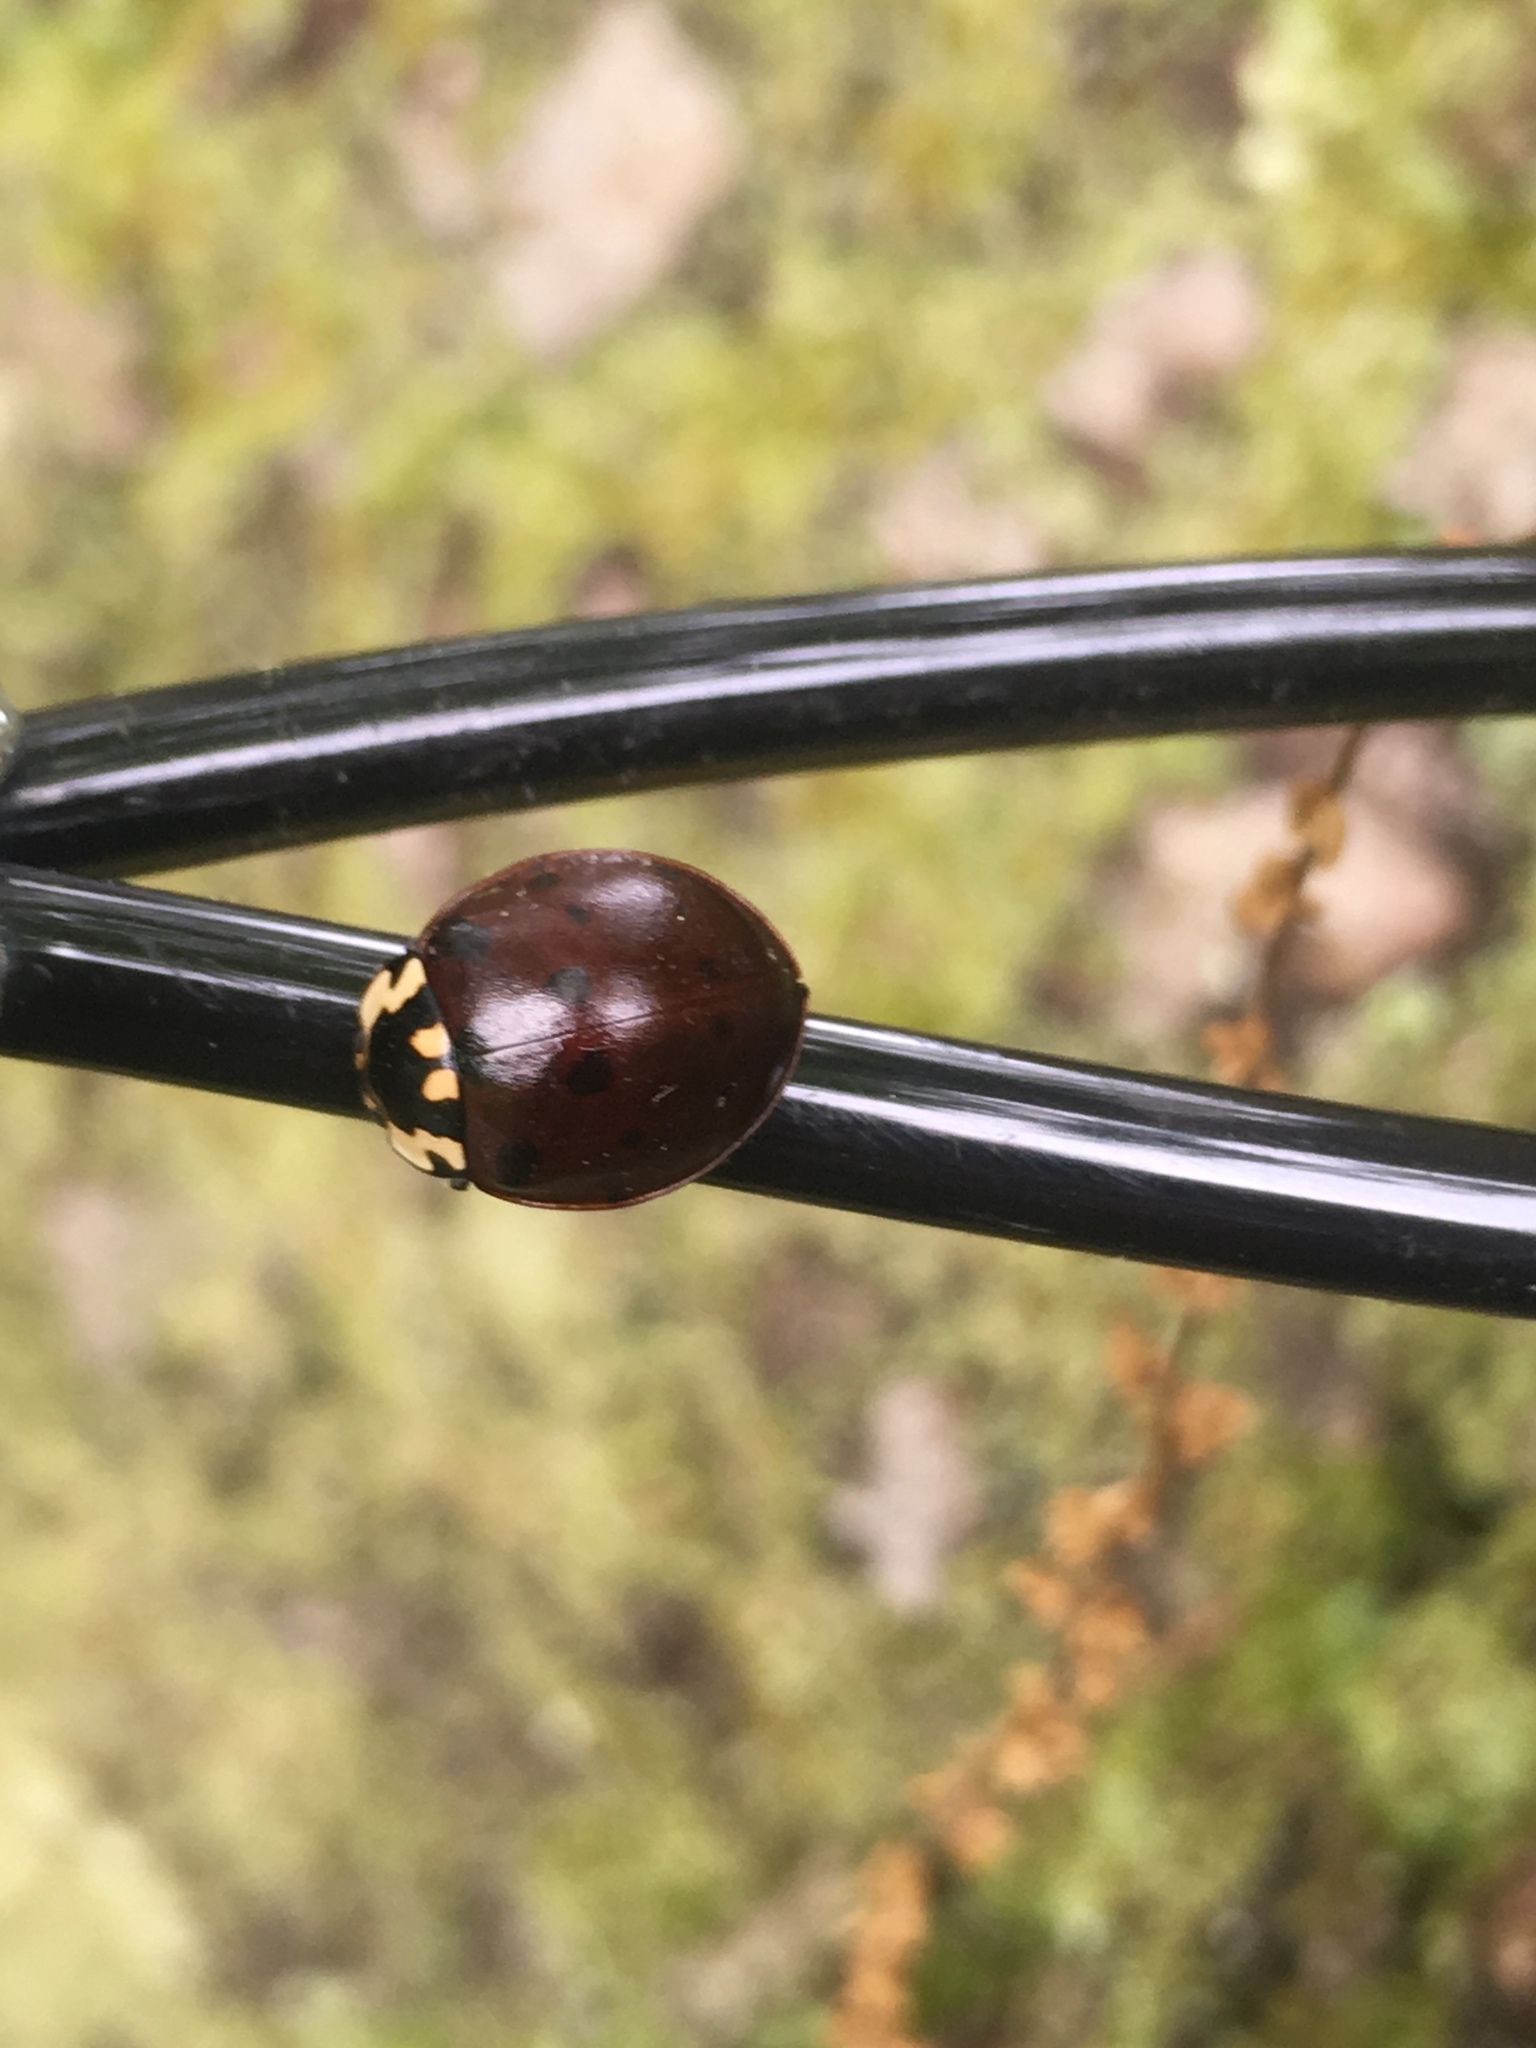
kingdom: Animalia
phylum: Arthropoda
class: Insecta
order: Coleoptera
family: Coccinellidae
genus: Anatis
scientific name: Anatis labiculata
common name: Fifteen-spotted lady beetle
